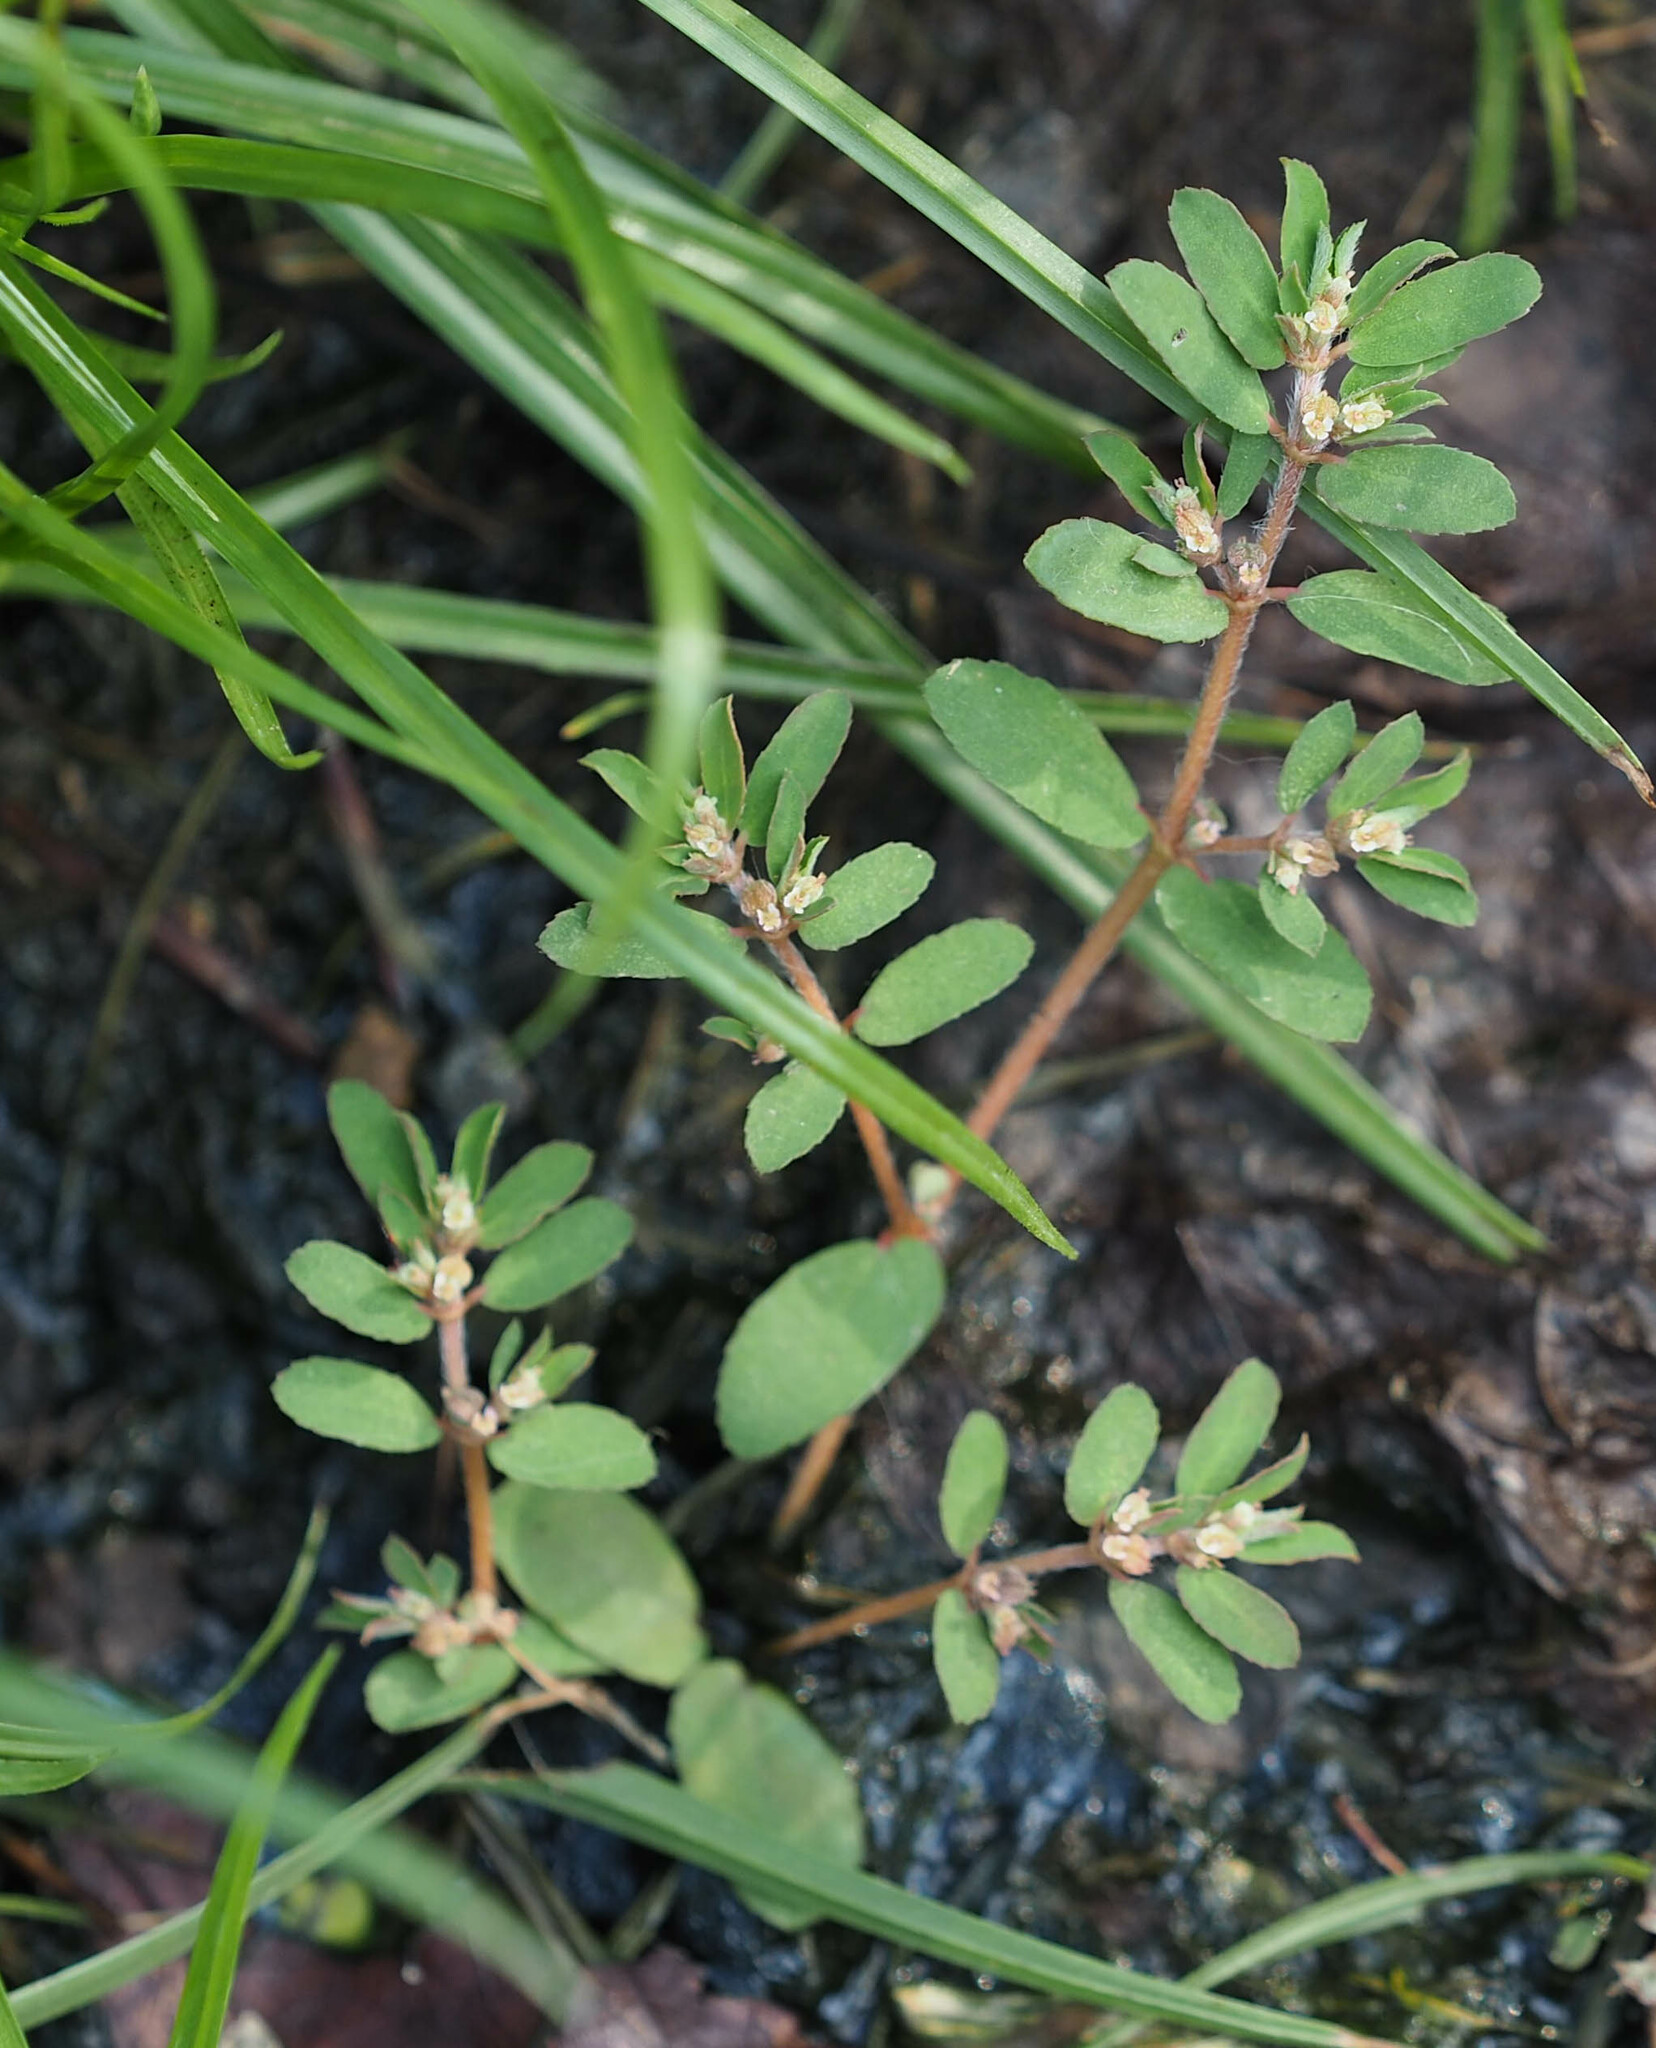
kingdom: Plantae
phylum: Tracheophyta
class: Magnoliopsida
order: Malpighiales
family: Euphorbiaceae
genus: Euphorbia
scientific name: Euphorbia maculata
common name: Spotted spurge
